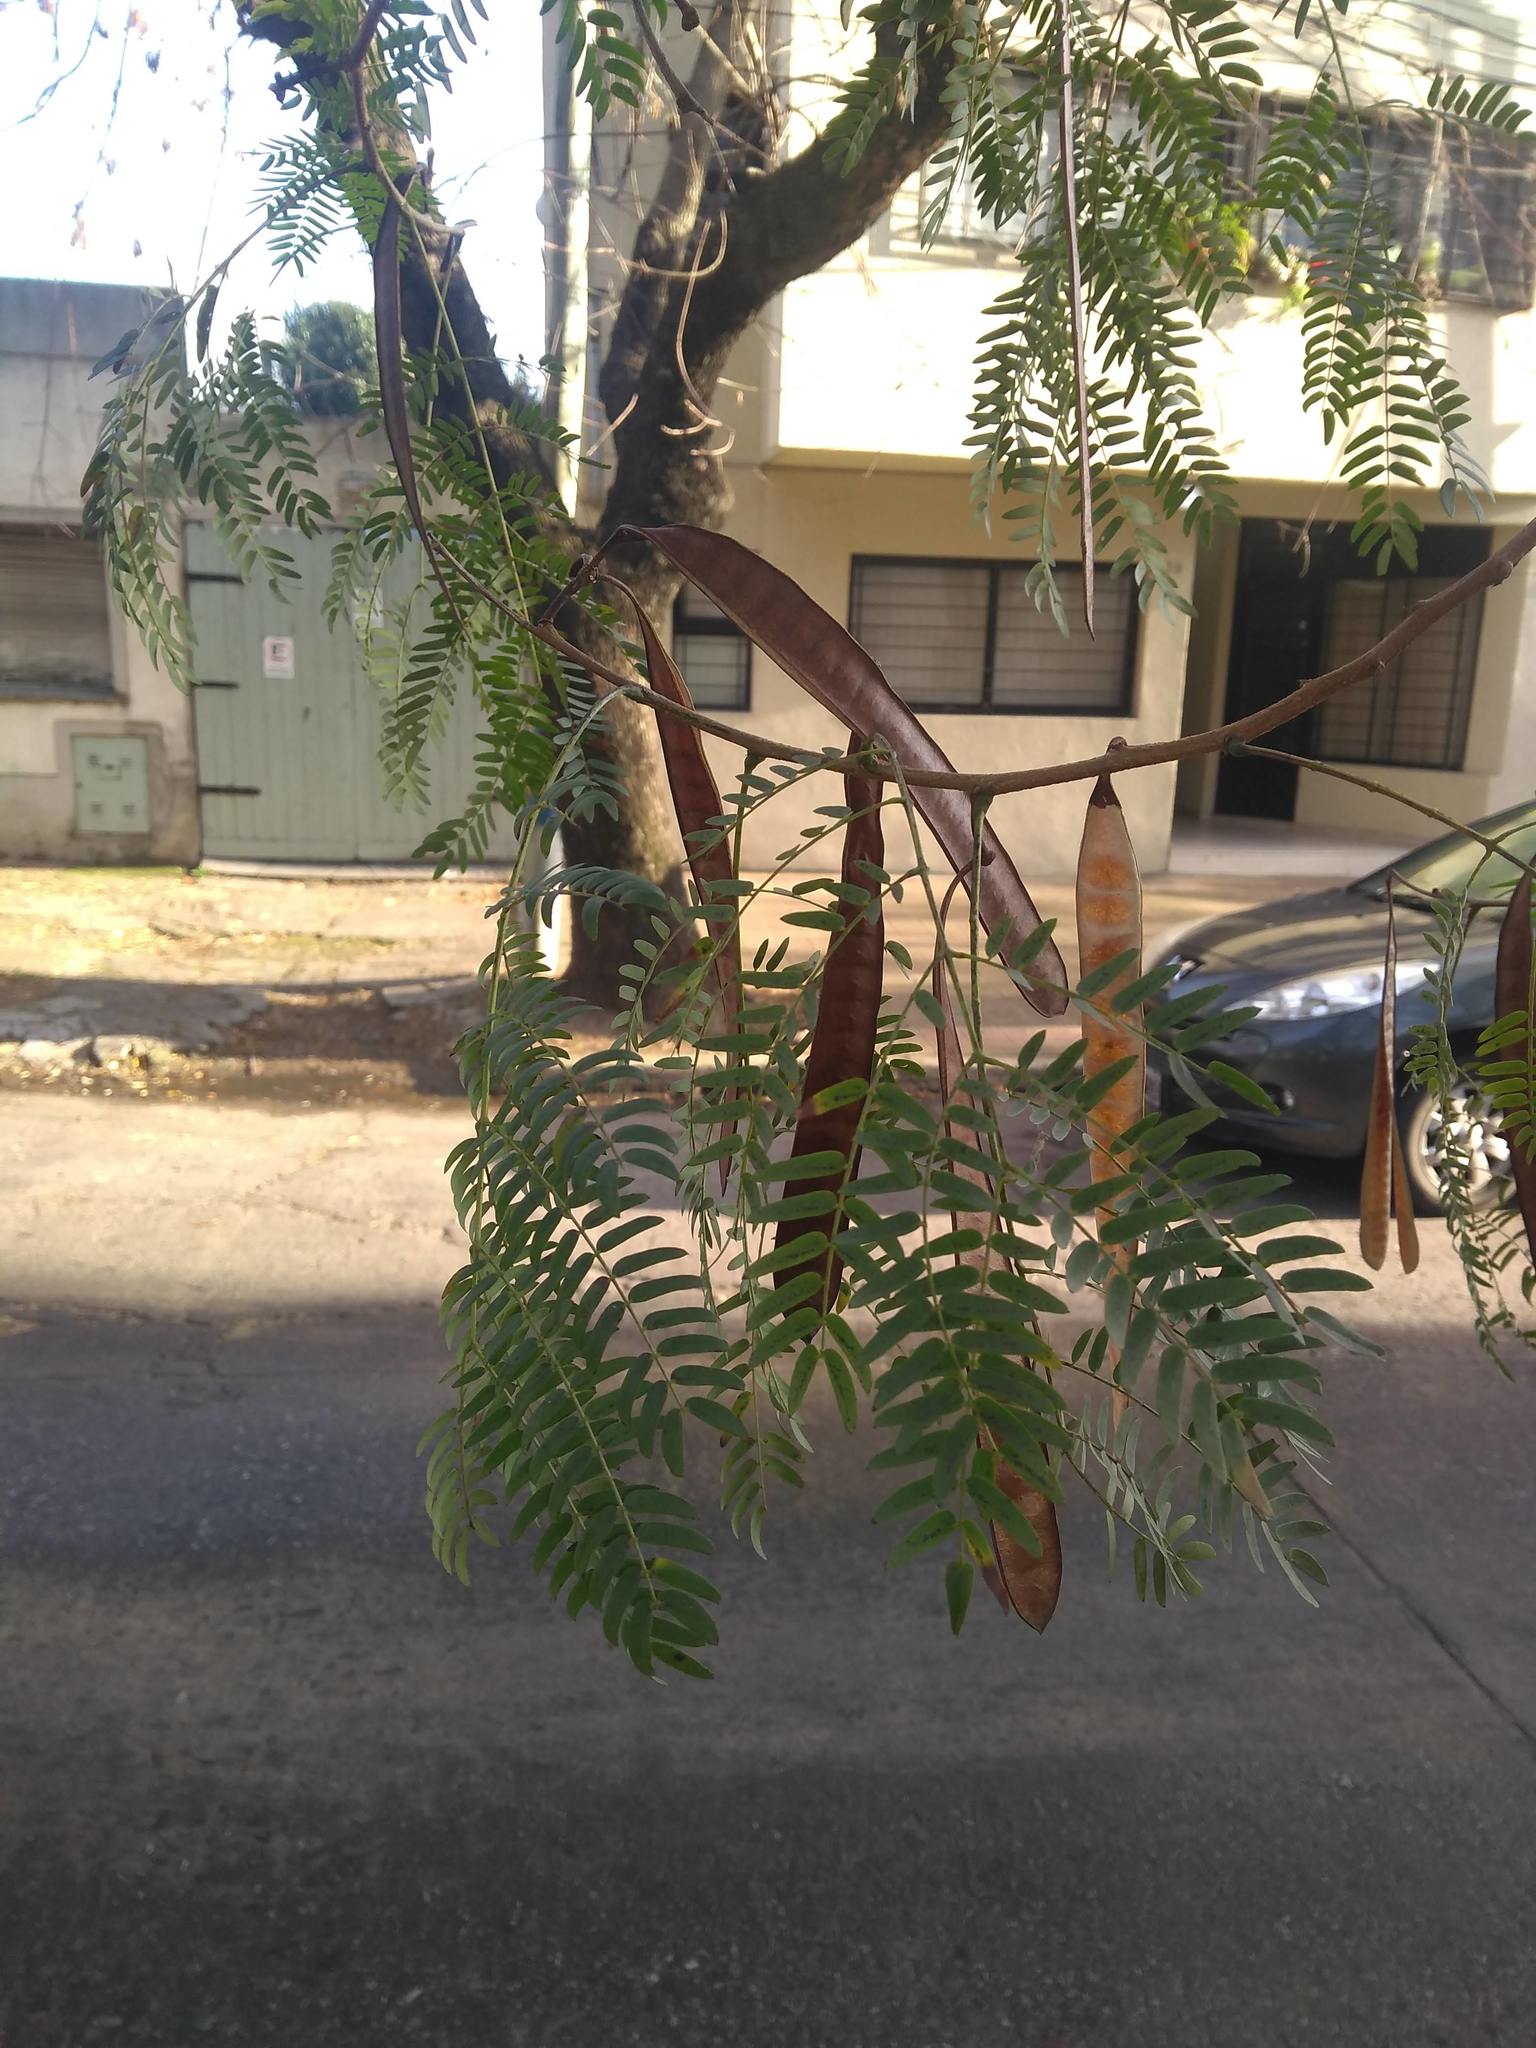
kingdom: Plantae
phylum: Tracheophyta
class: Magnoliopsida
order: Fabales
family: Fabaceae
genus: Leucaena
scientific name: Leucaena leucocephala
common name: White leadtree
